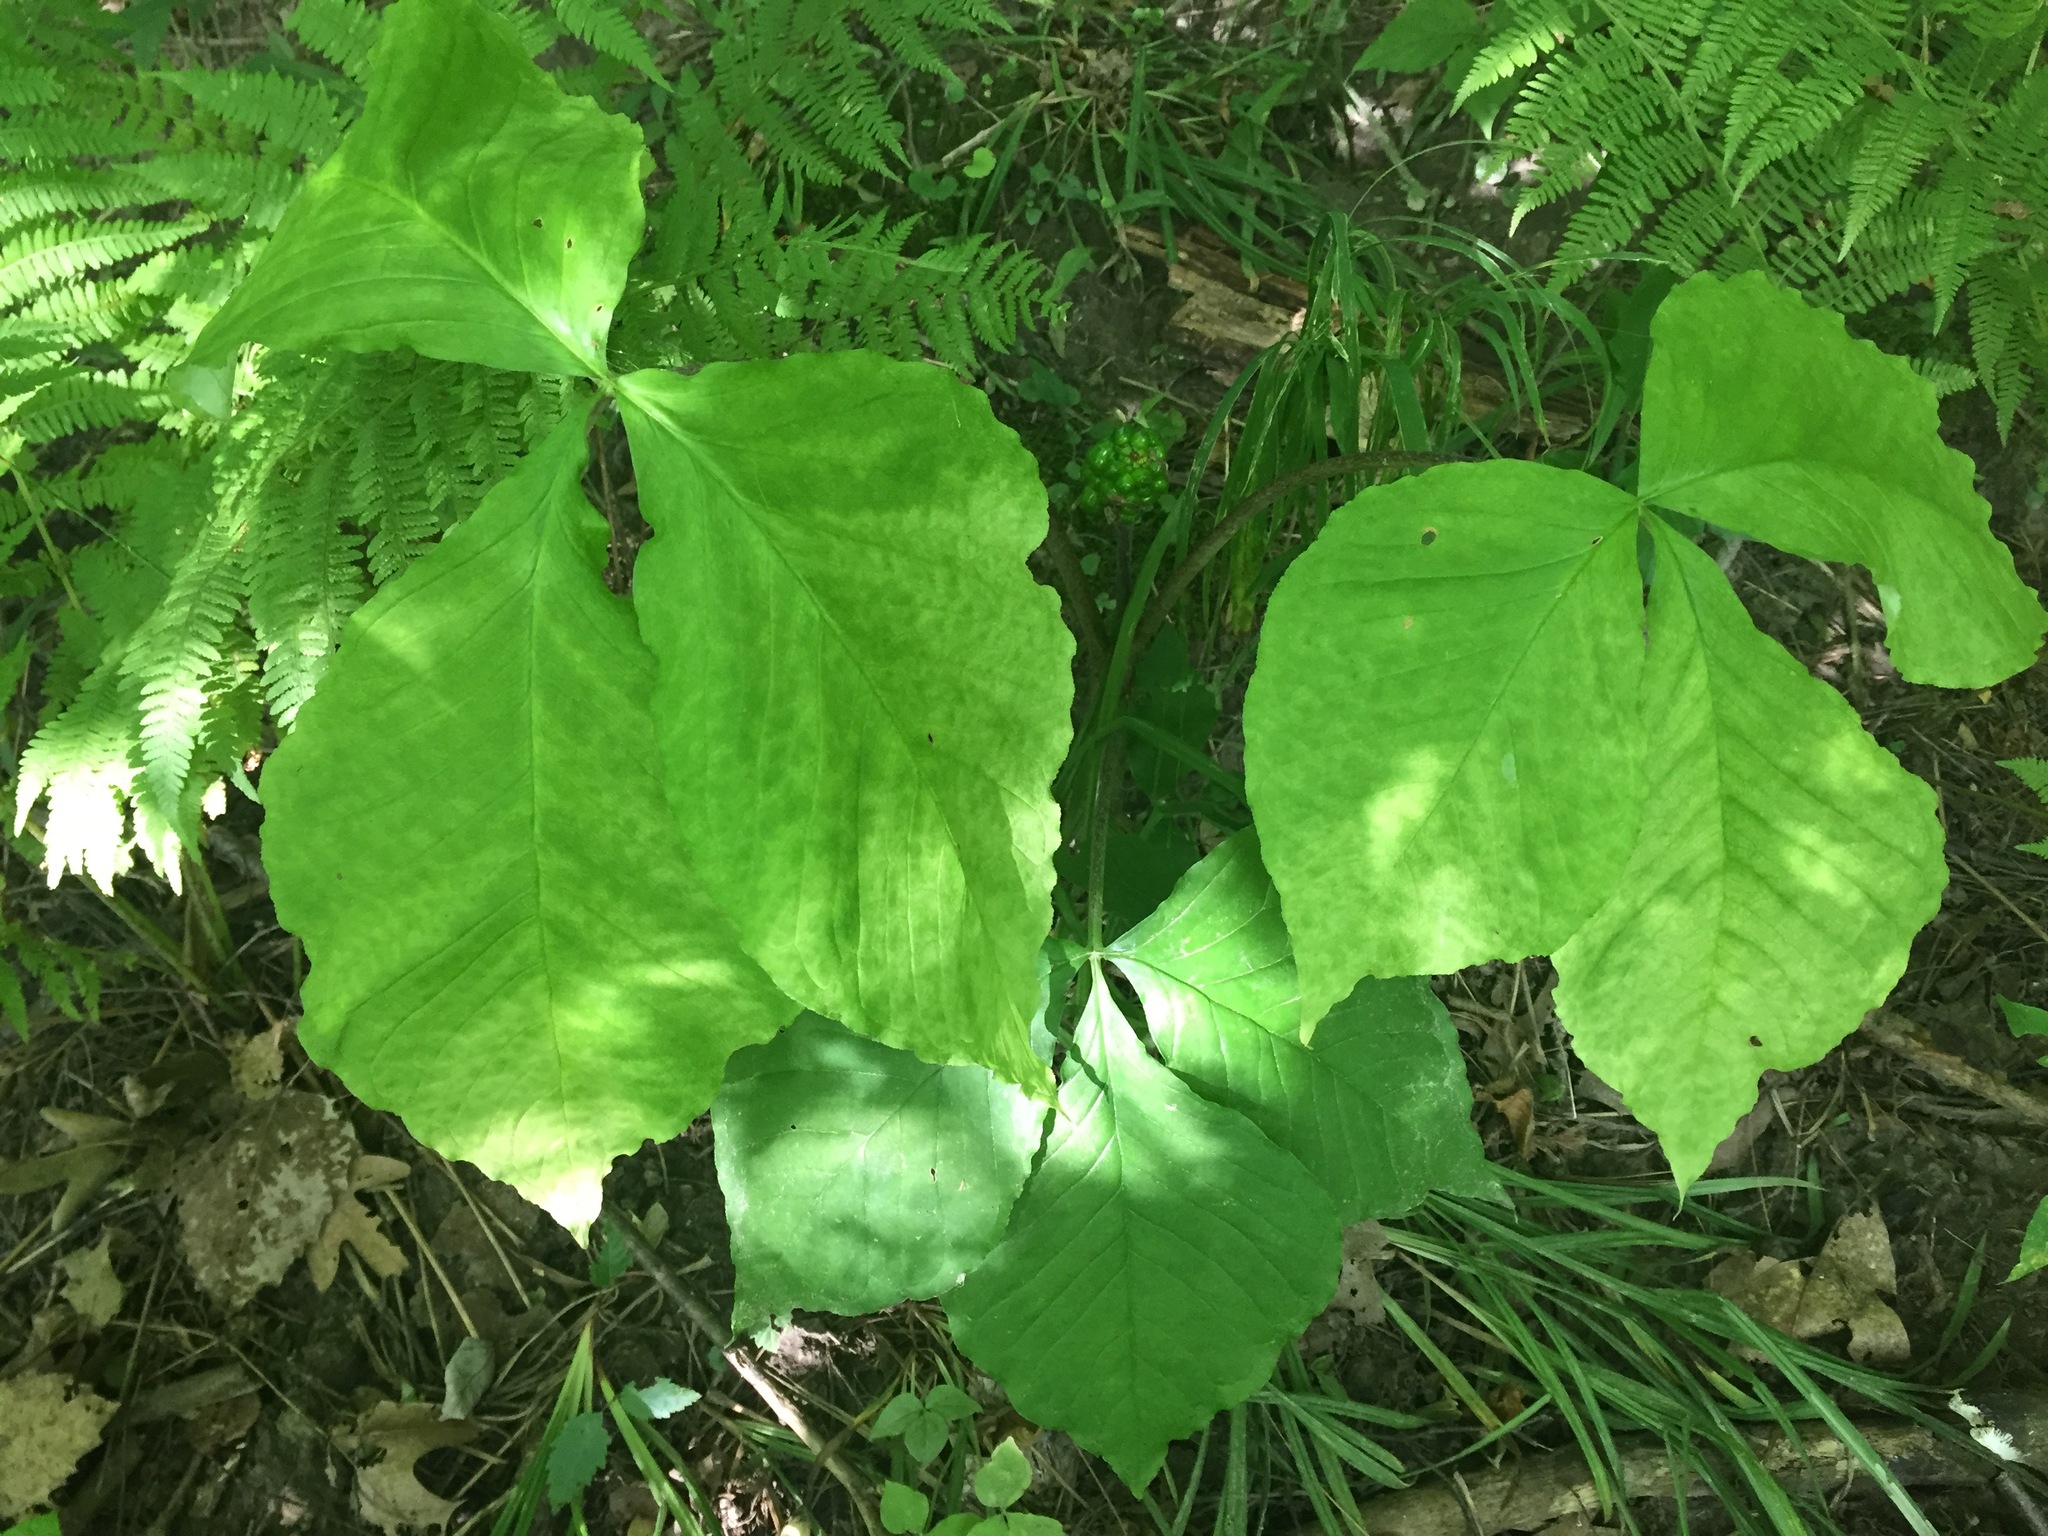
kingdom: Plantae
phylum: Tracheophyta
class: Liliopsida
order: Alismatales
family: Araceae
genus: Arisaema
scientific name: Arisaema triphyllum
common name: Jack-in-the-pulpit
